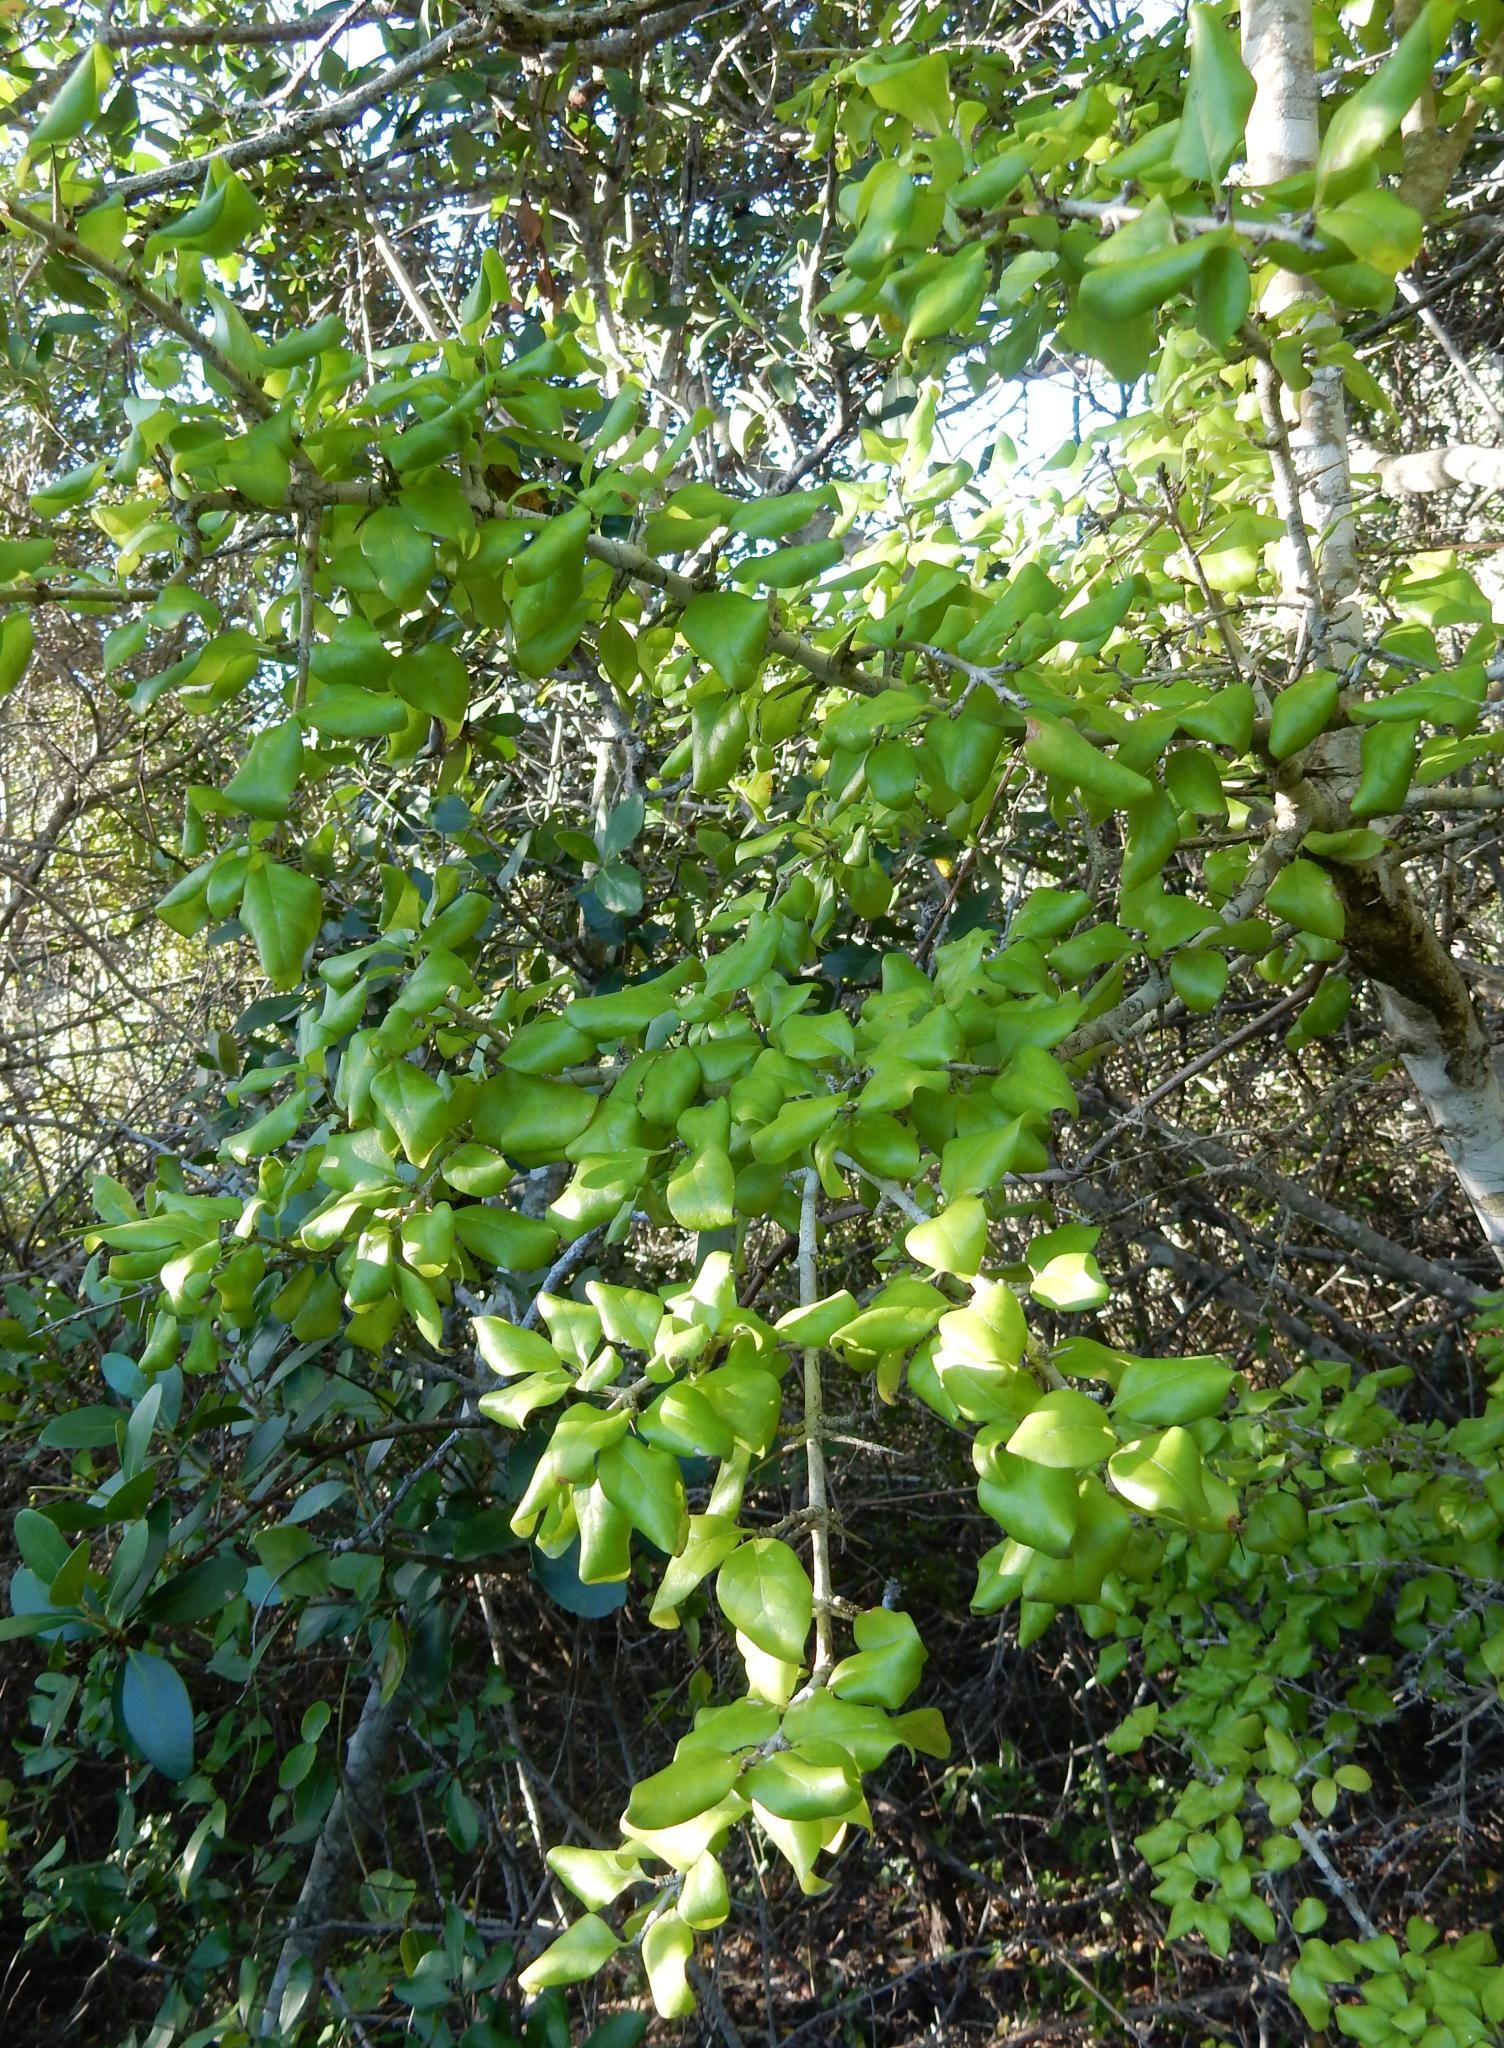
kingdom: Plantae
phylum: Tracheophyta
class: Magnoliopsida
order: Gentianales
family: Rubiaceae
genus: Catunaregam
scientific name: Catunaregam spinosa
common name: Emetic-nut
